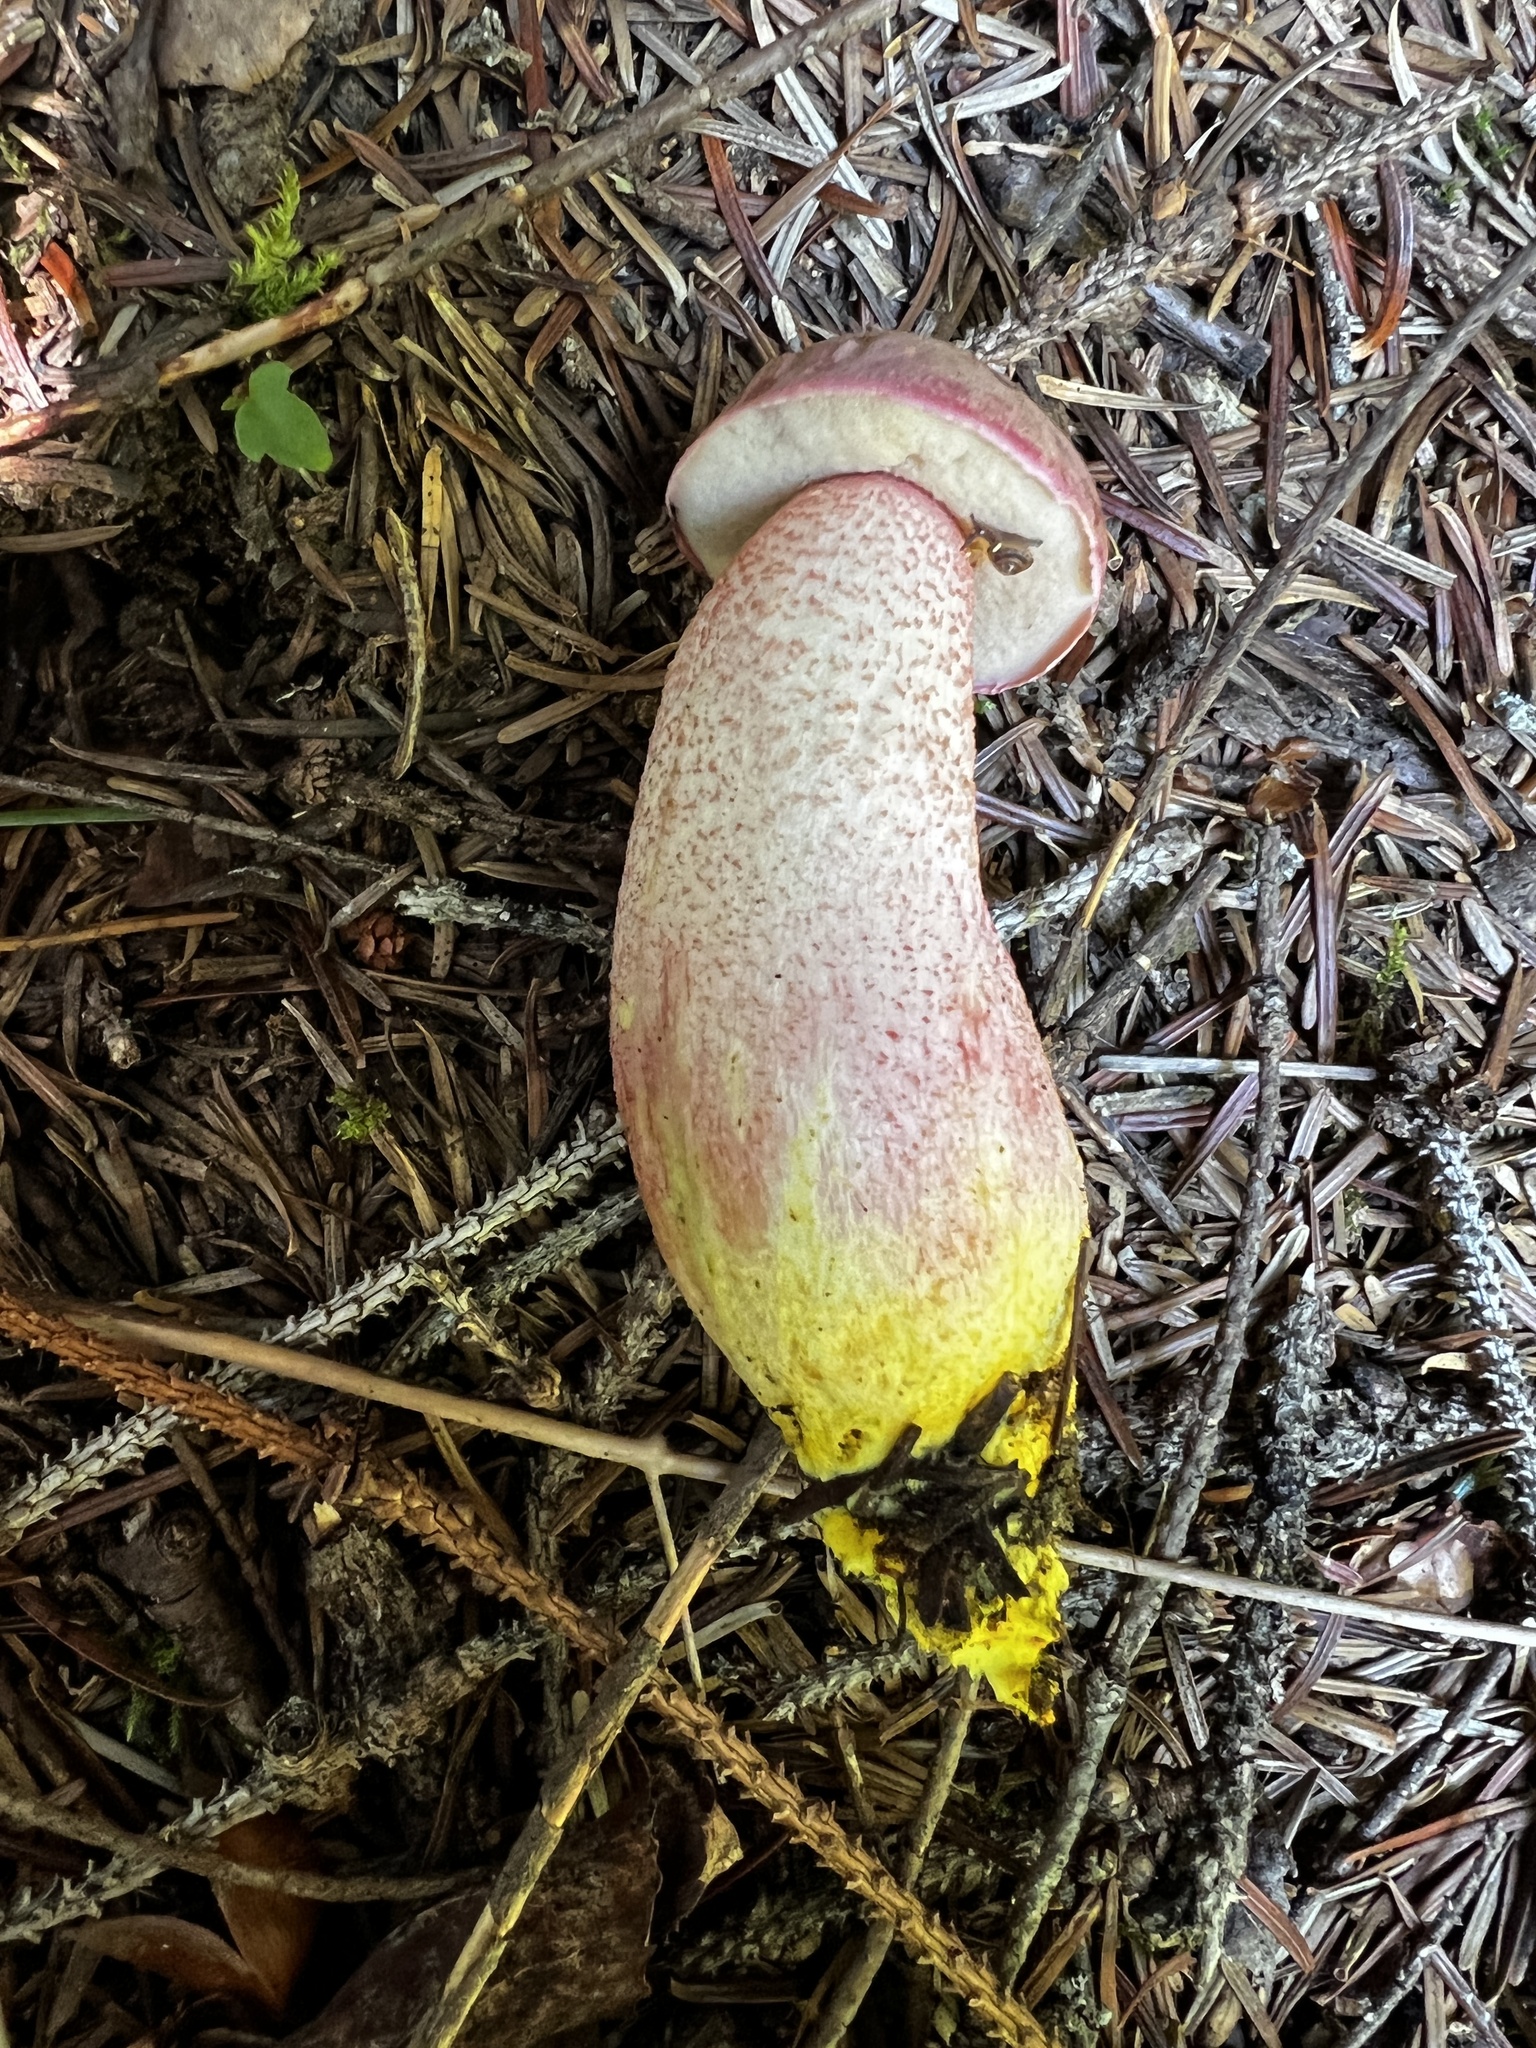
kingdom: Fungi
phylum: Basidiomycota
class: Agaricomycetes
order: Boletales
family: Boletaceae
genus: Harrya
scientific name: Harrya chromipes
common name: Chrome-footed bolete
